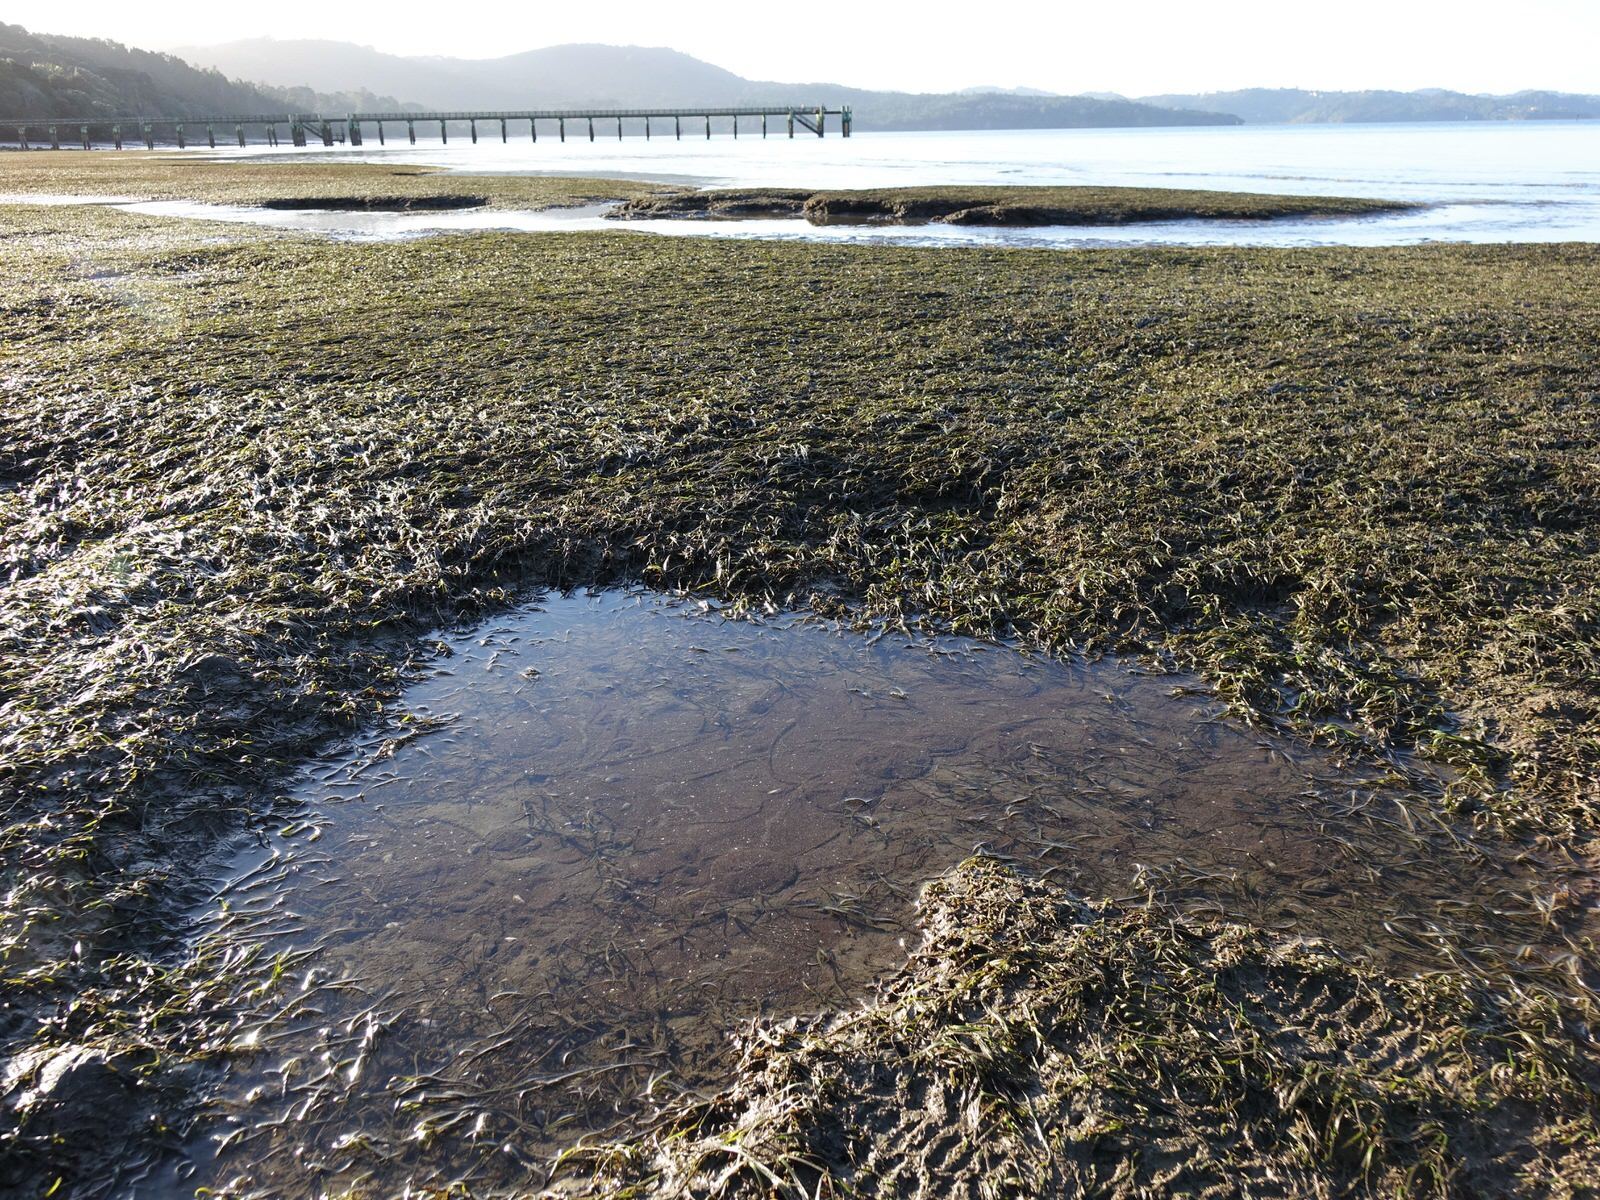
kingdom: Plantae
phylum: Tracheophyta
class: Liliopsida
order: Alismatales
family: Zosteraceae
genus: Zostera
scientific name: Zostera novazelandica
